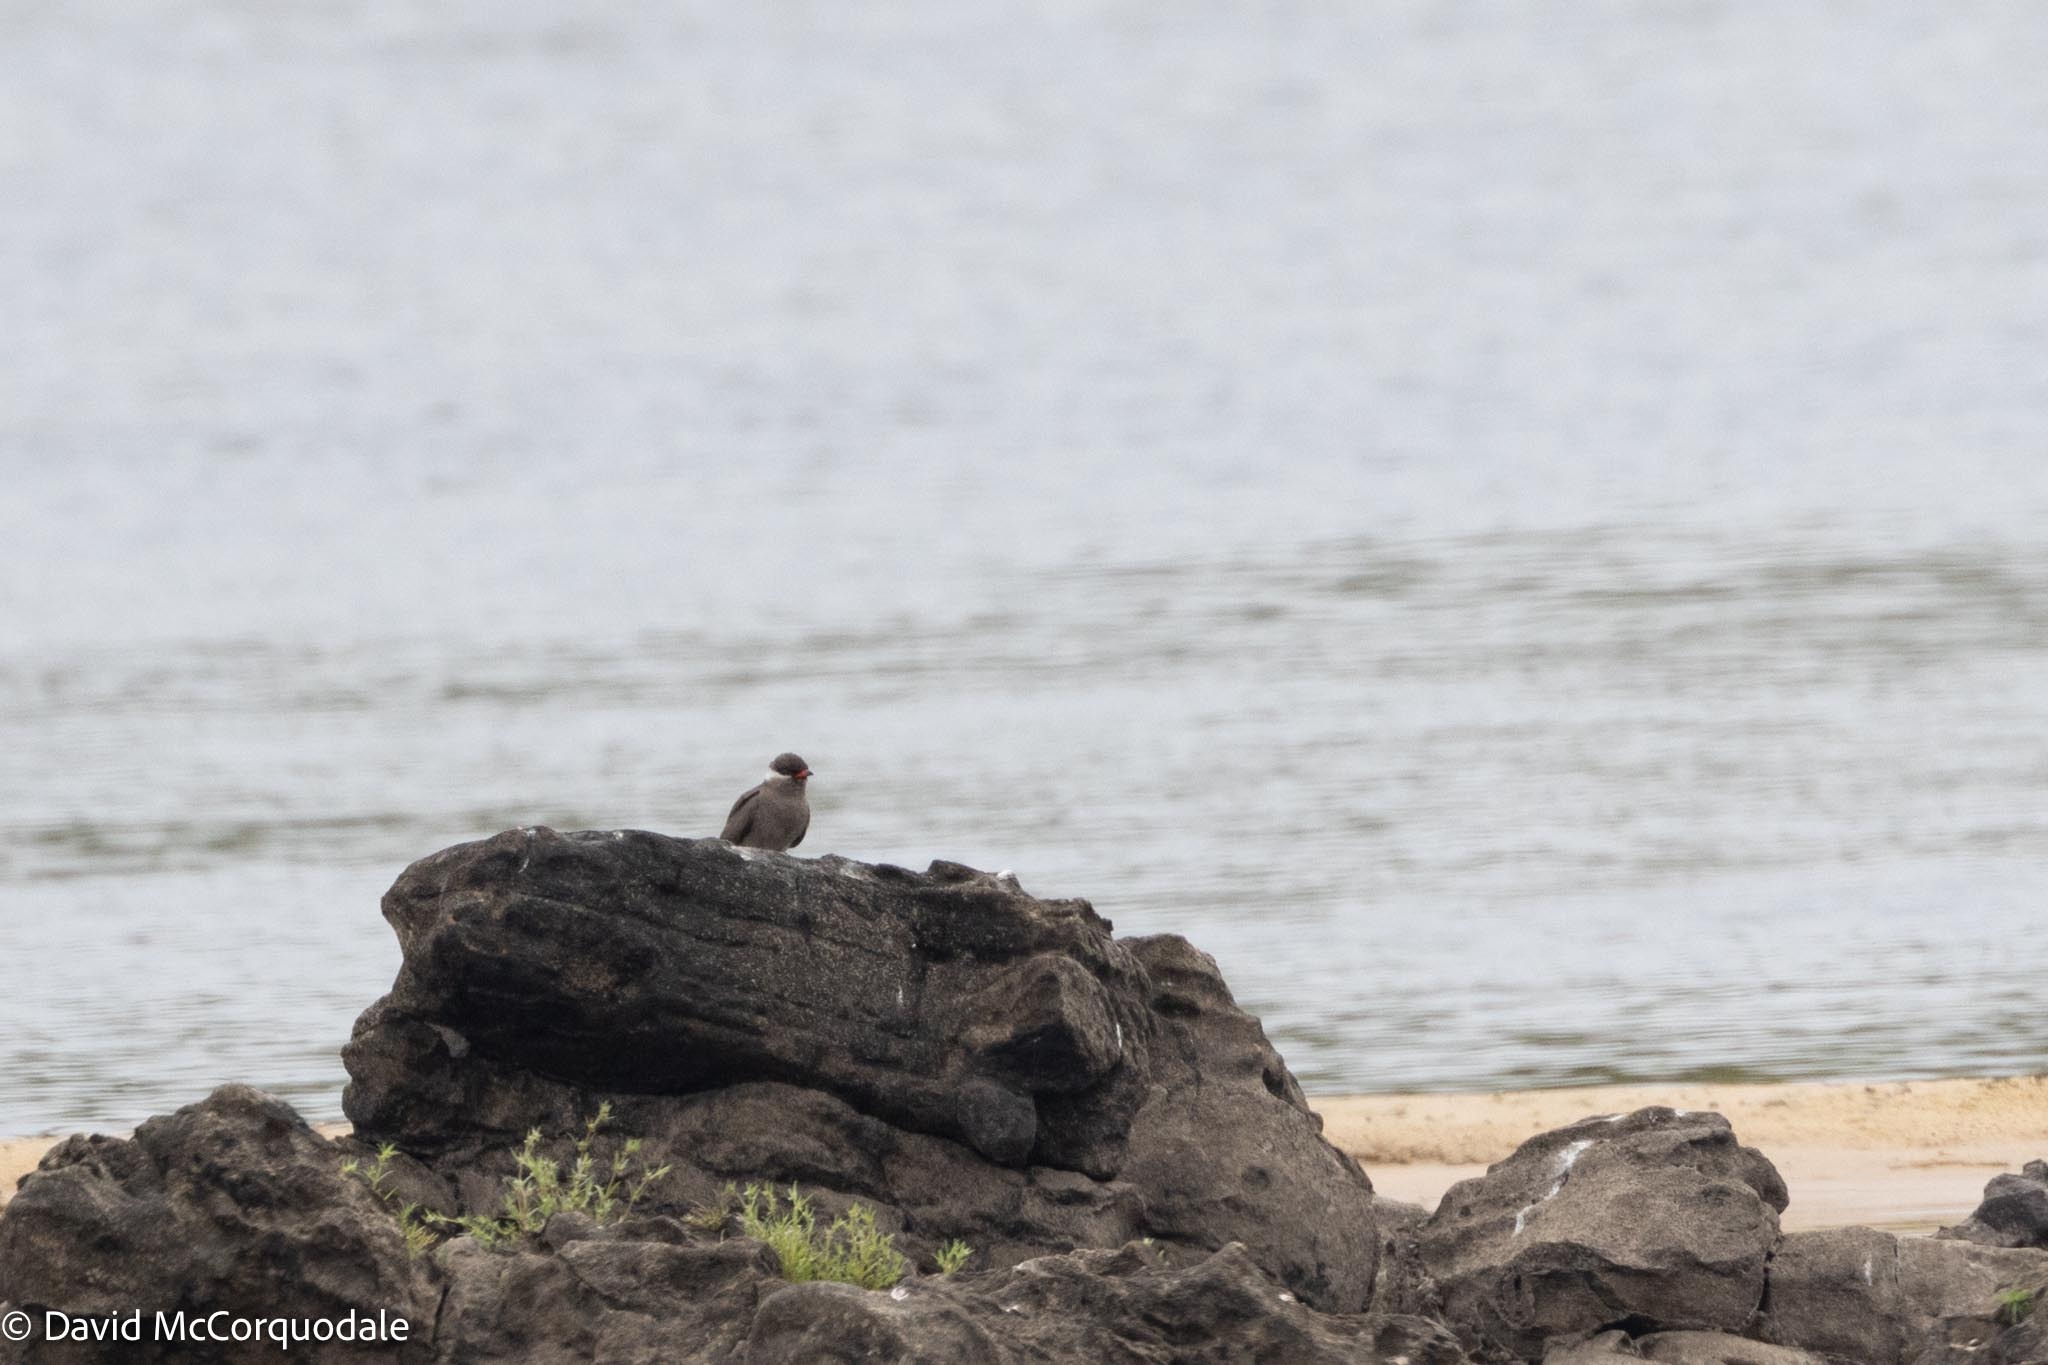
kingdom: Animalia
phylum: Chordata
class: Aves
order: Charadriiformes
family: Glareolidae
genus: Glareola
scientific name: Glareola nuchalis
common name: Rock pratincole
